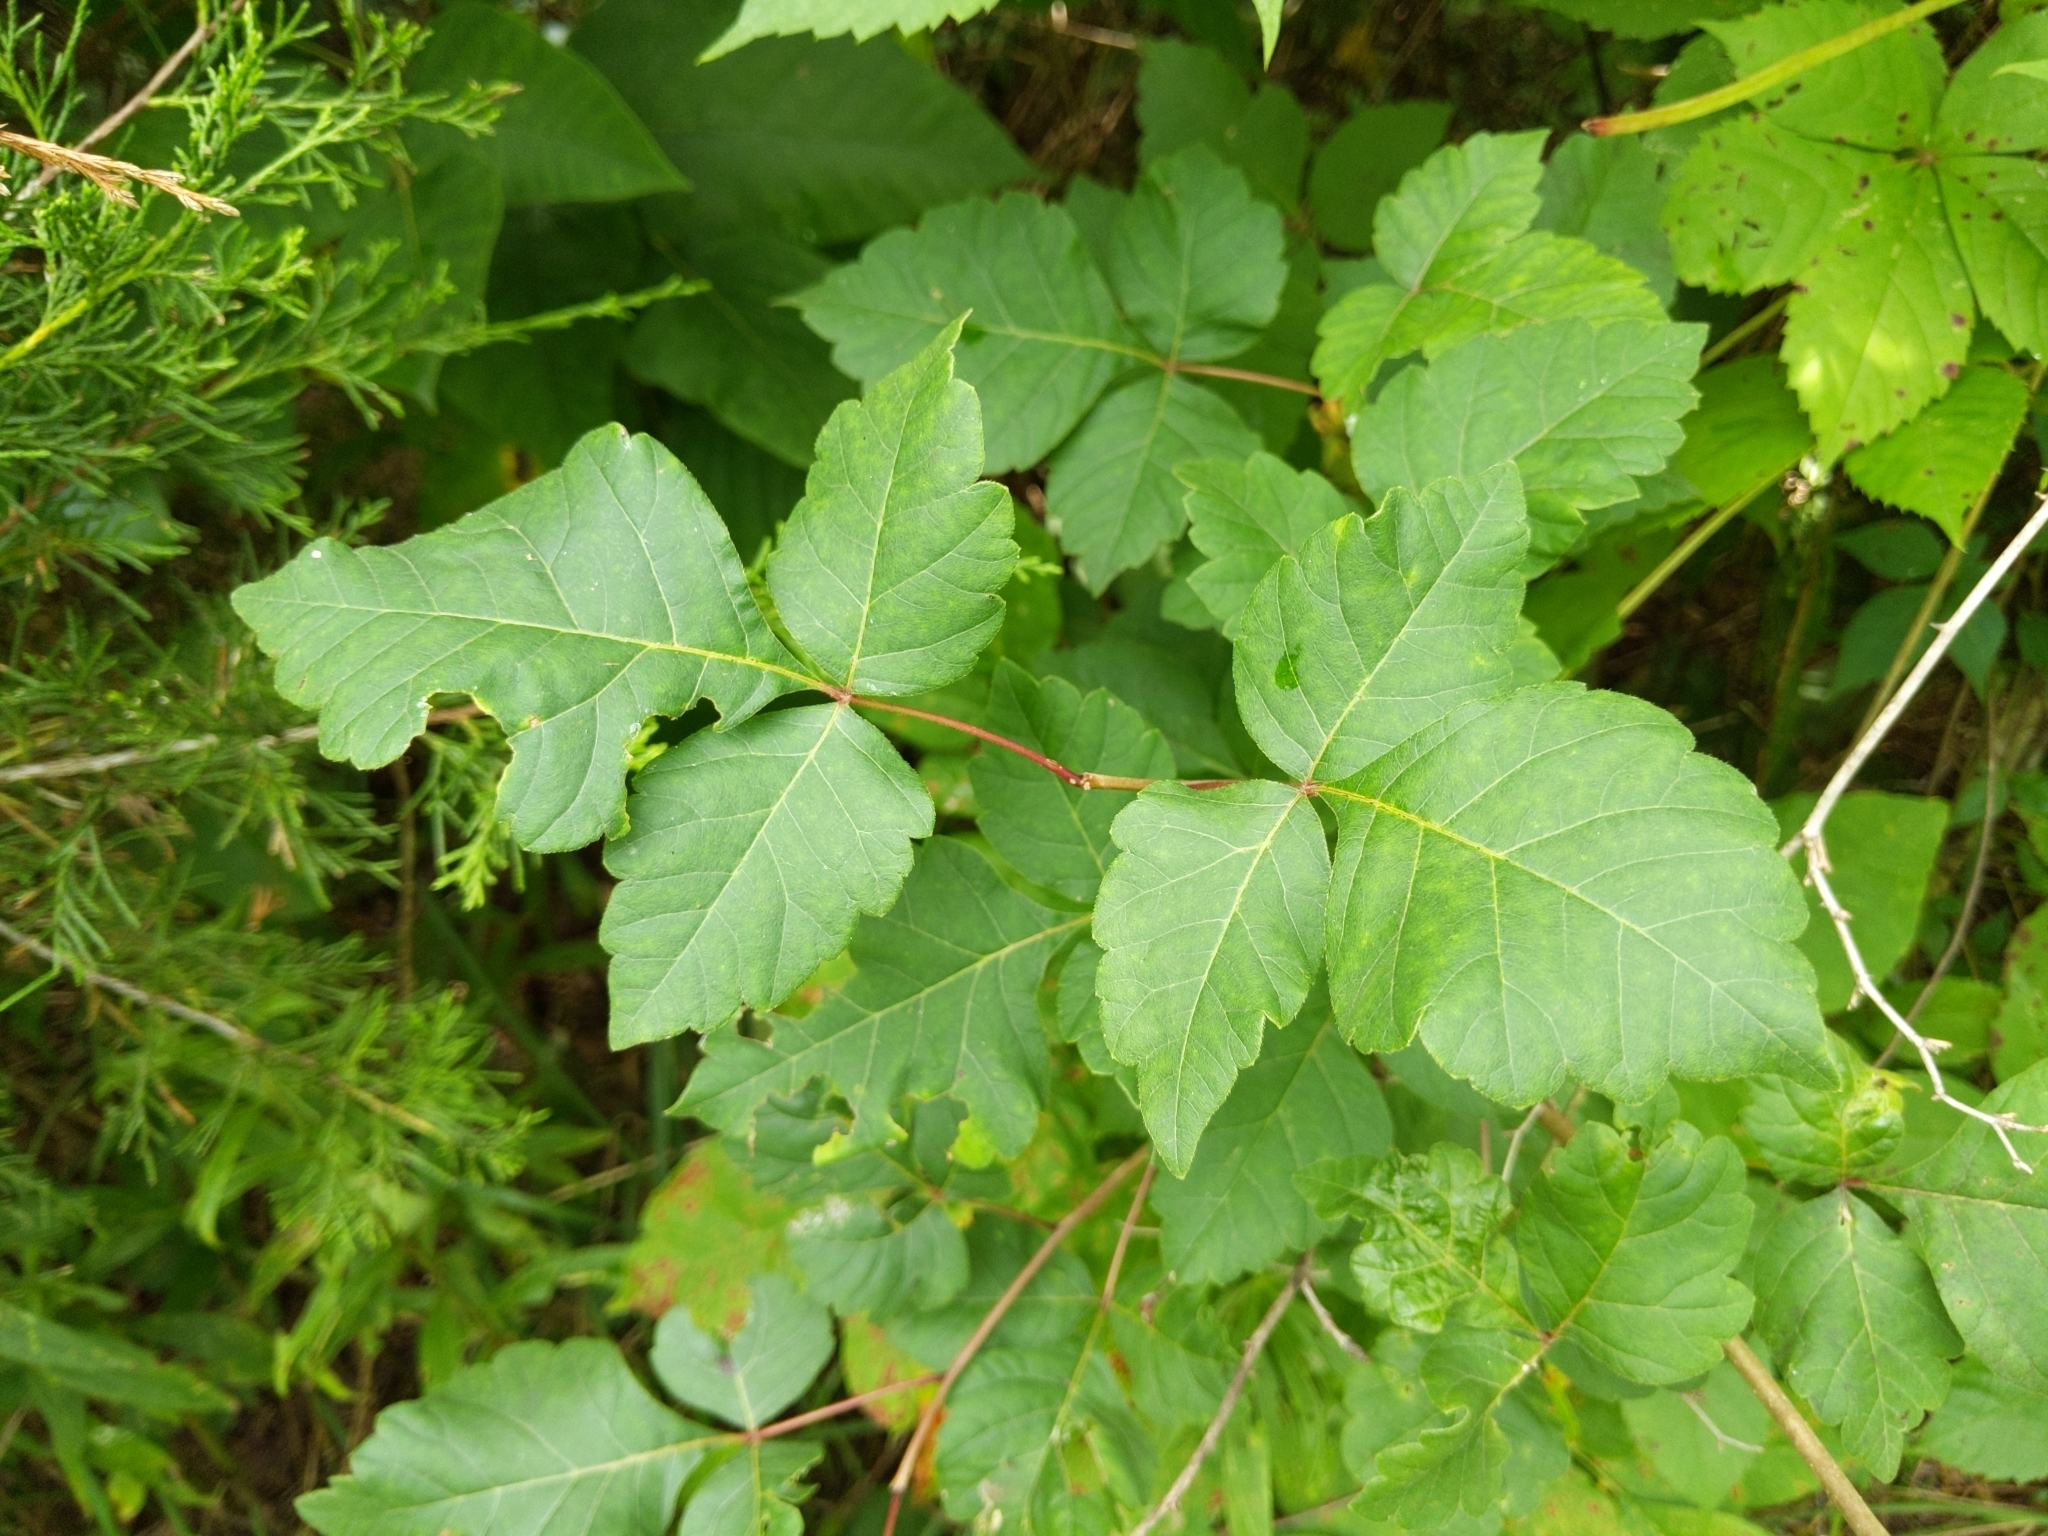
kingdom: Plantae
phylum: Tracheophyta
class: Magnoliopsida
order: Sapindales
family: Anacardiaceae
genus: Toxicodendron
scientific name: Toxicodendron radicans
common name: Poison ivy
